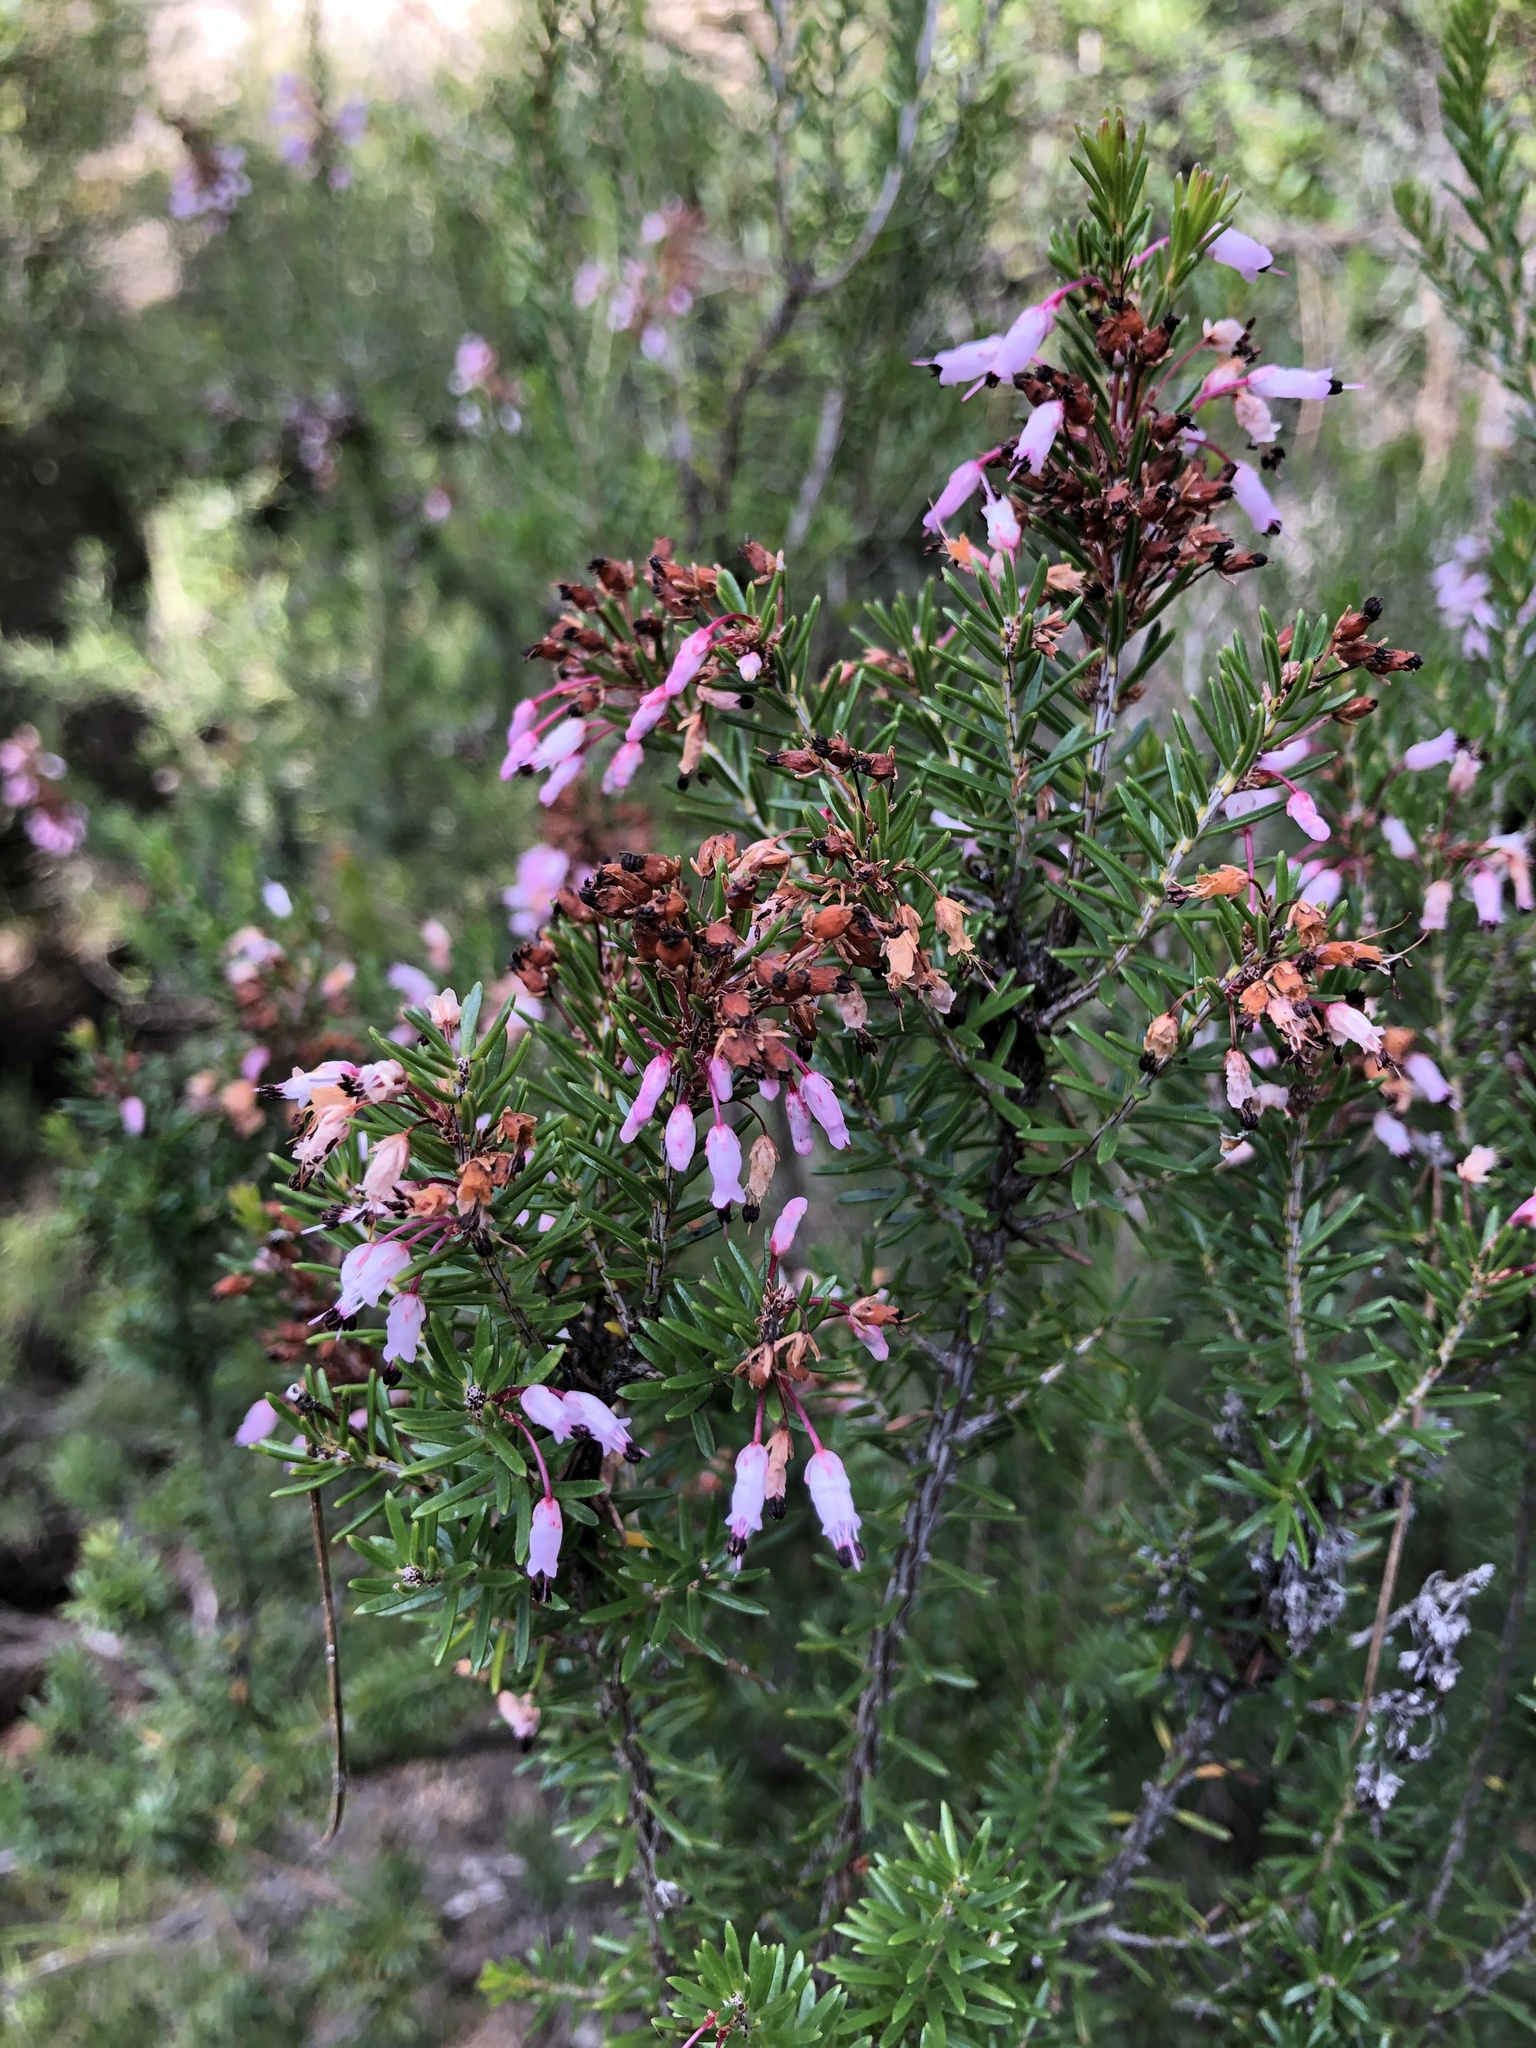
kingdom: Plantae
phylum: Tracheophyta
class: Magnoliopsida
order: Ericales
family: Ericaceae
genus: Erica
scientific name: Erica multiflora
